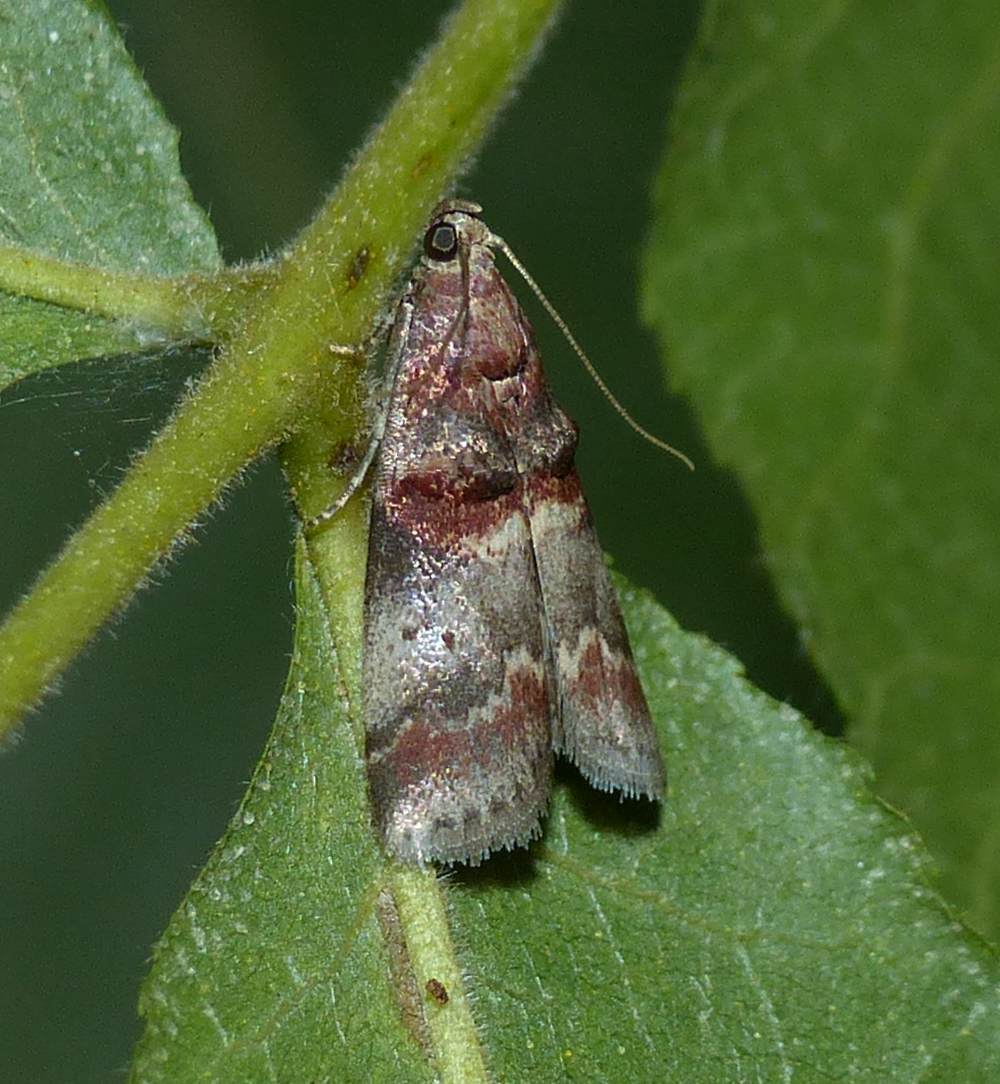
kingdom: Animalia
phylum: Arthropoda
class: Insecta
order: Lepidoptera
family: Pyralidae
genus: Acrobasis
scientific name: Acrobasis angusella
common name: Hickory leafstem borer moth
